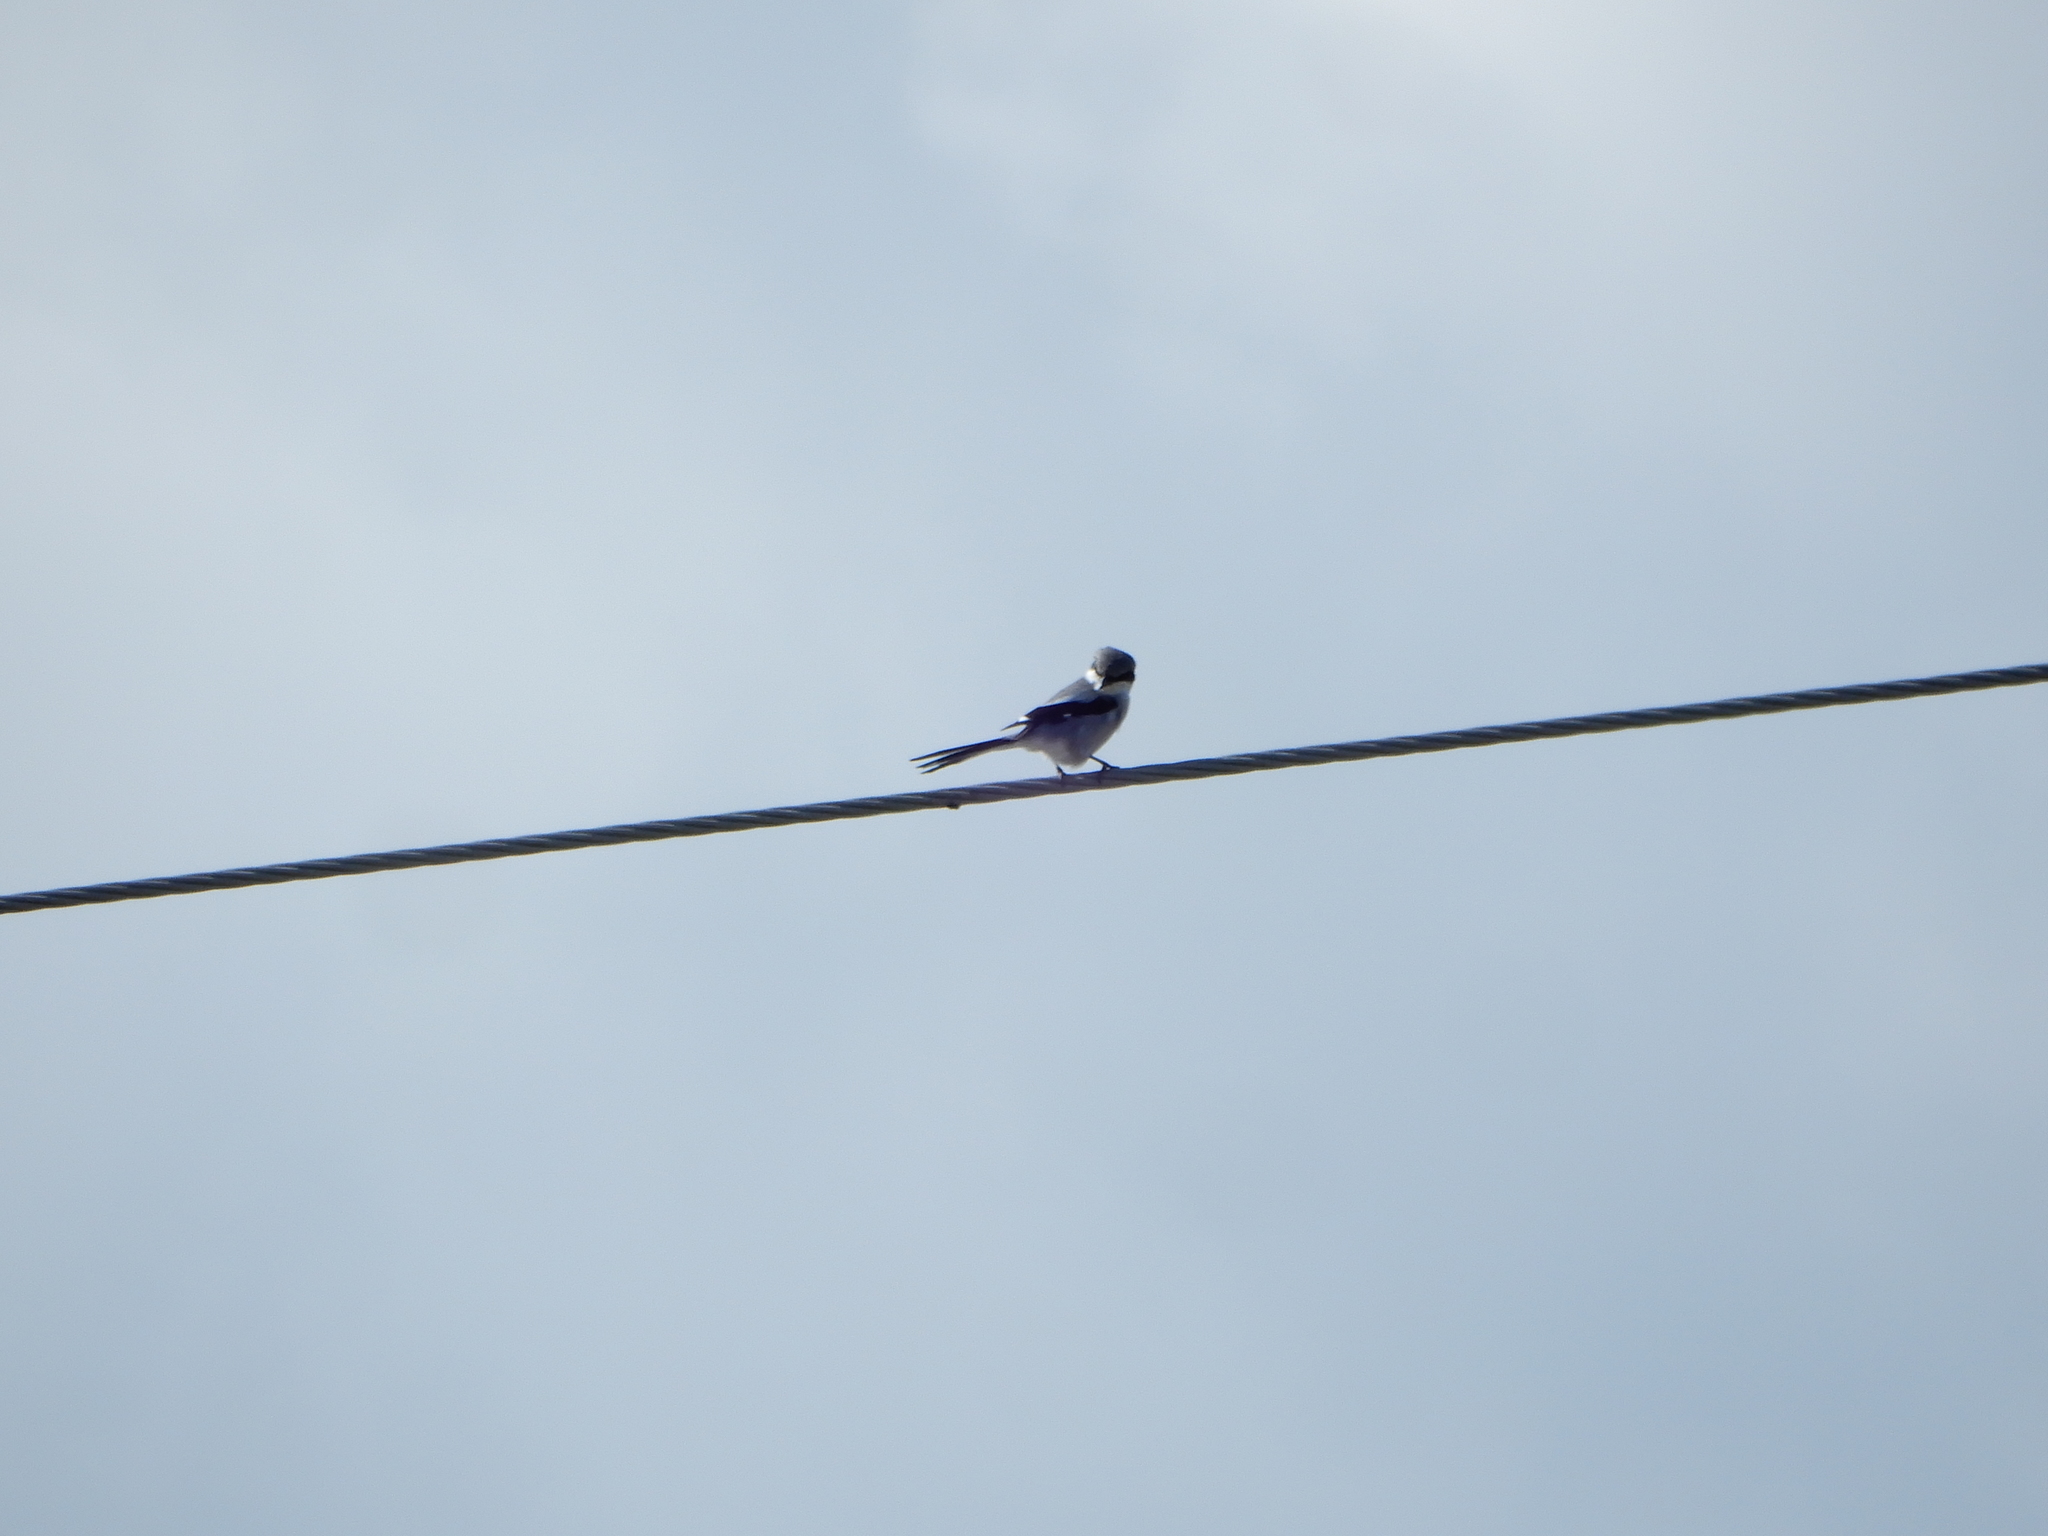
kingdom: Animalia
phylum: Chordata
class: Aves
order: Passeriformes
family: Laniidae
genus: Lanius
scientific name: Lanius ludovicianus
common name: Loggerhead shrike
